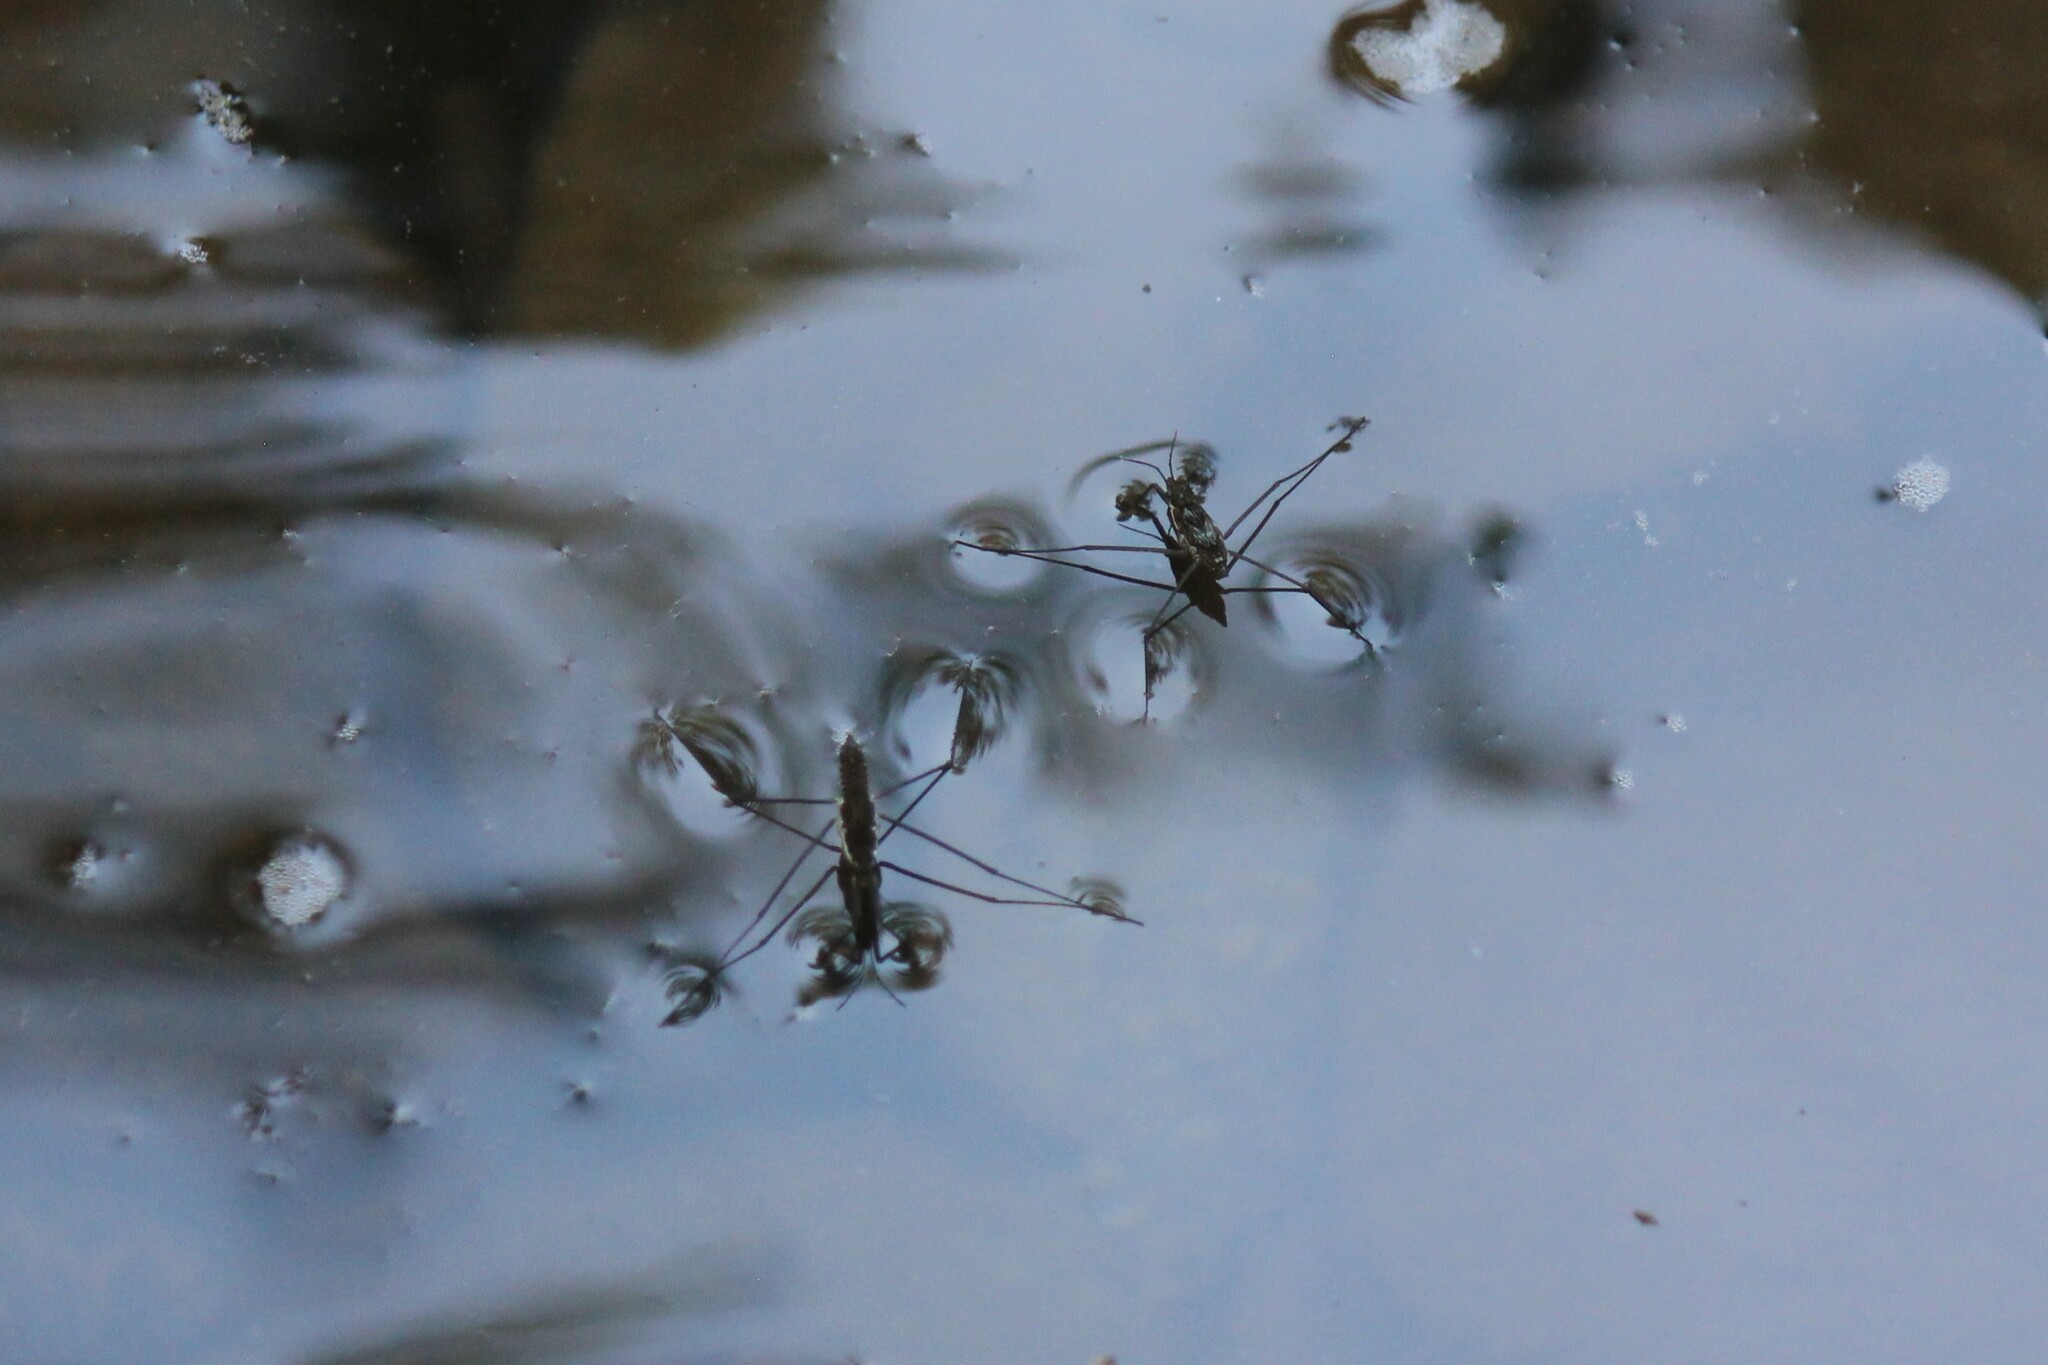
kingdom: Animalia
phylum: Arthropoda
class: Insecta
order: Hemiptera
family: Gerridae
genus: Aquarius
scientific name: Aquarius remigis
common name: Common water strider
